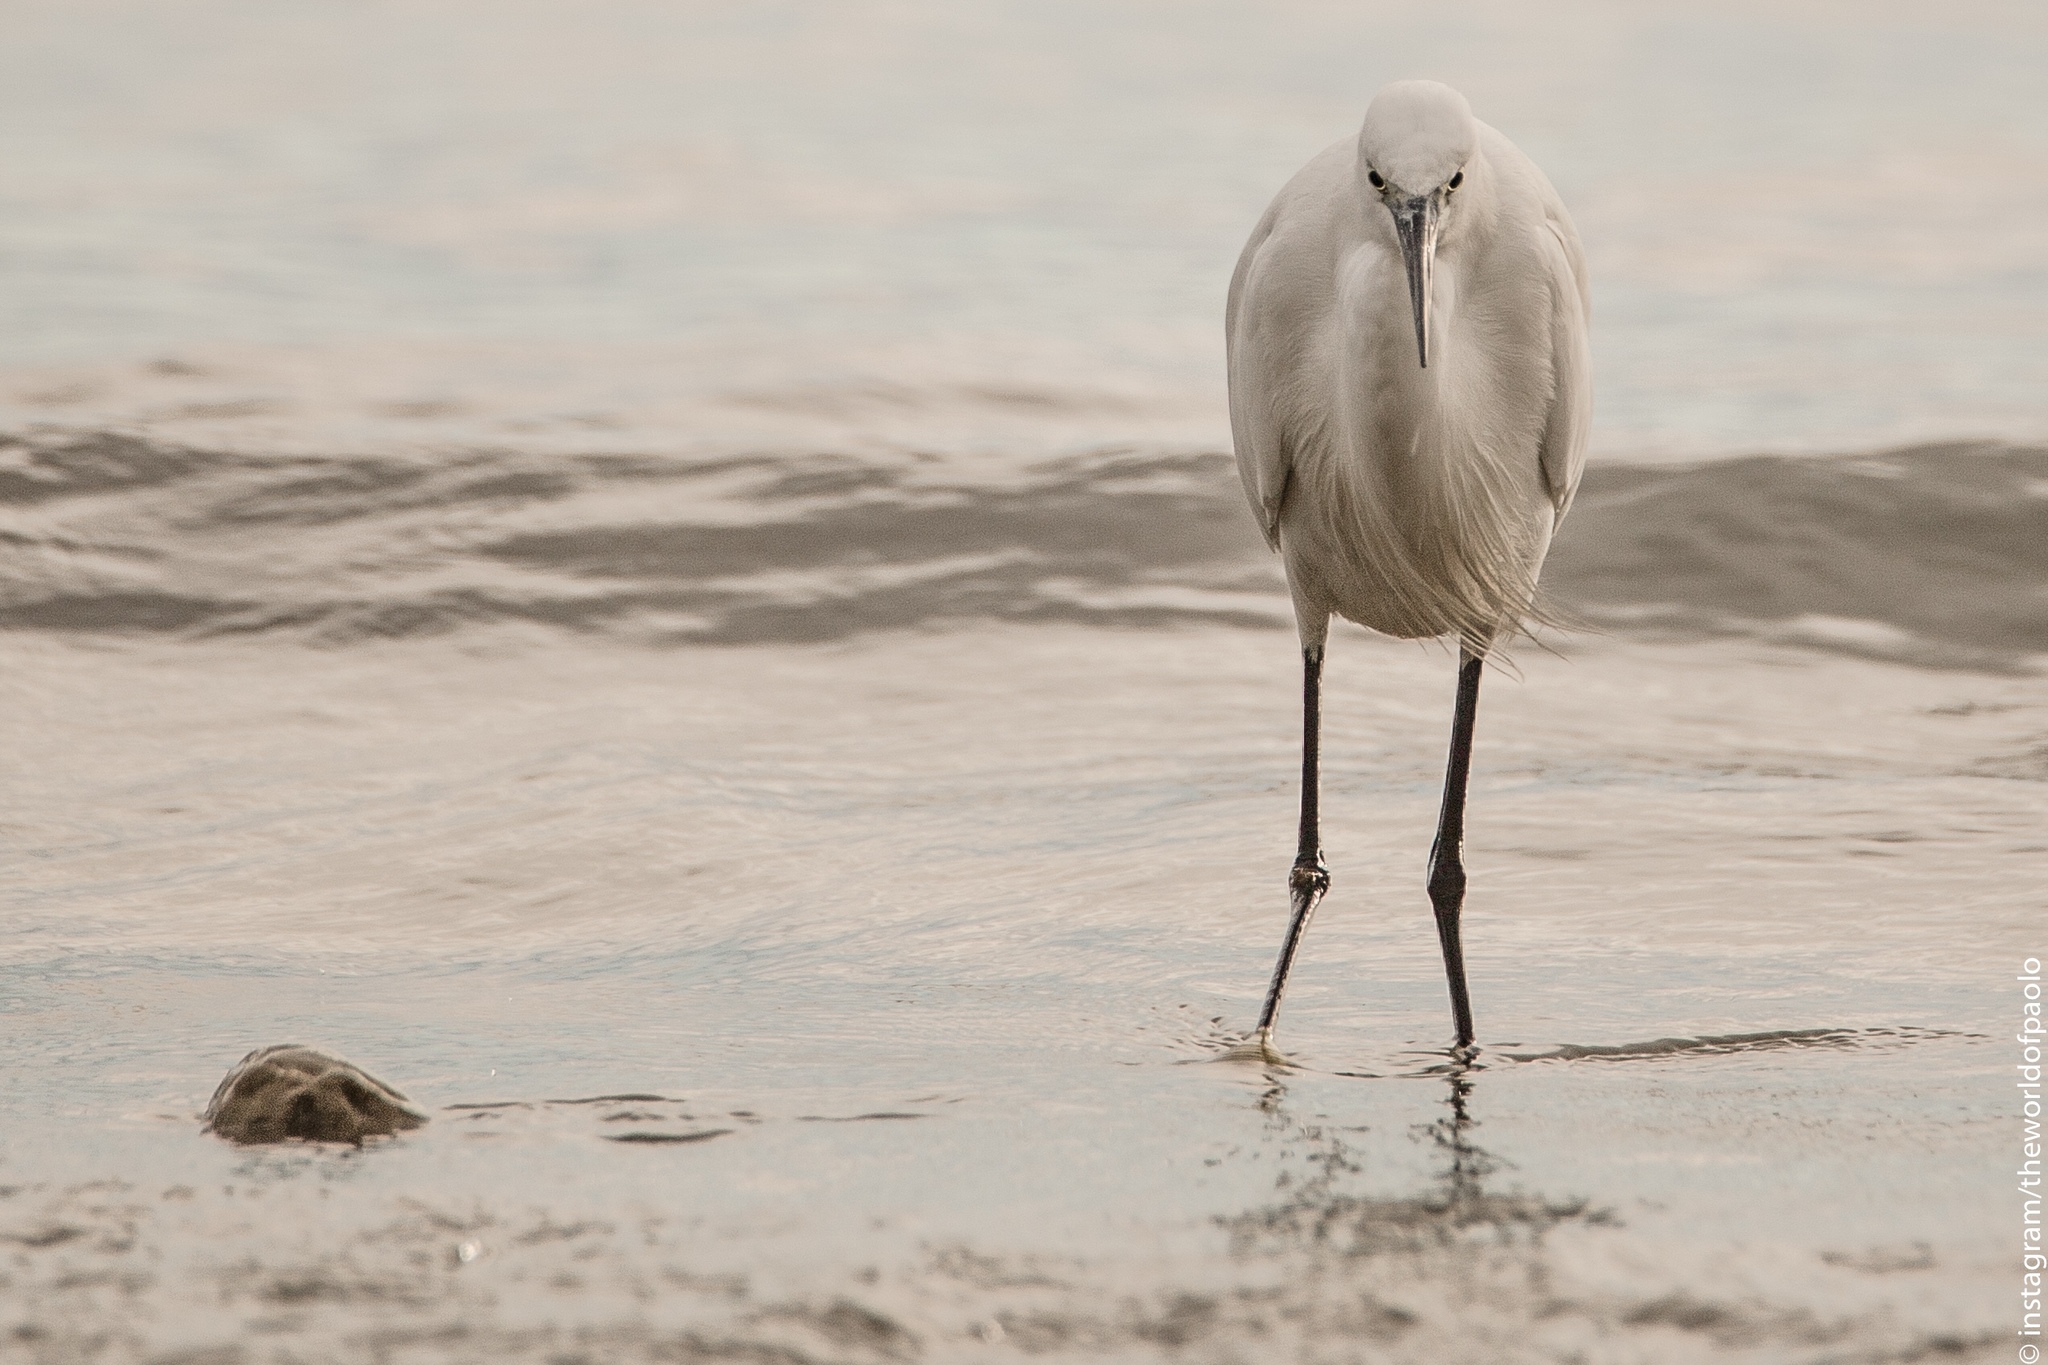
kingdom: Animalia
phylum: Chordata
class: Aves
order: Pelecaniformes
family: Ardeidae
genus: Egretta
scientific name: Egretta garzetta
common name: Little egret
